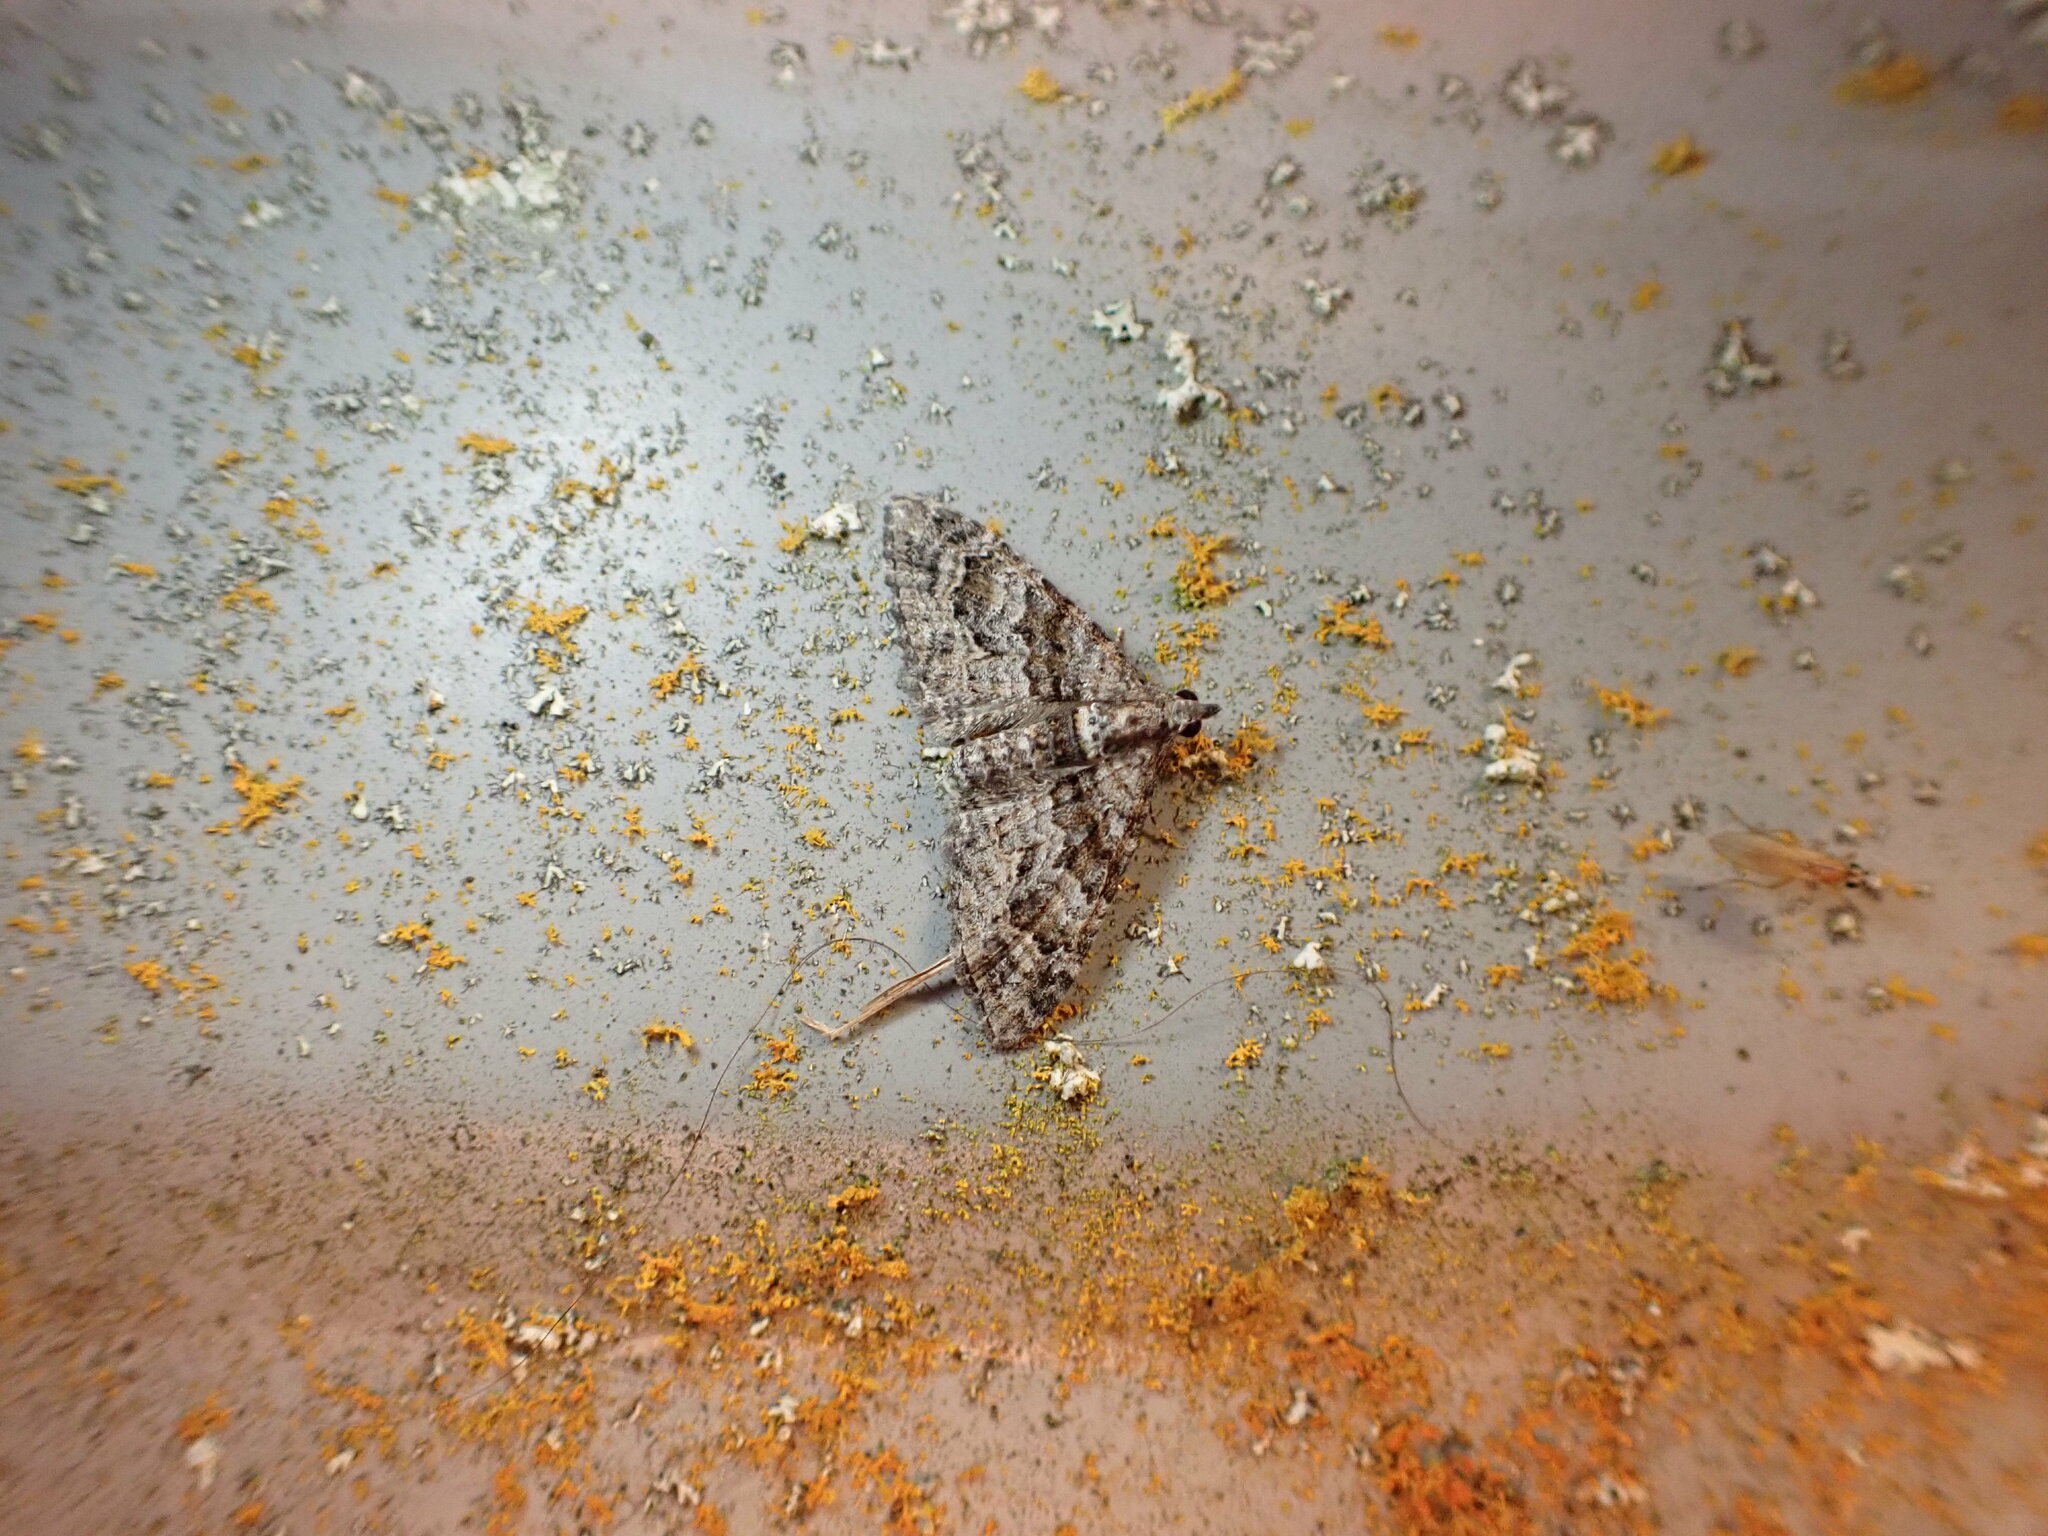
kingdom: Animalia
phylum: Arthropoda
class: Insecta
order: Lepidoptera
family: Geometridae
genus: Phrissogonus
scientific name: Phrissogonus laticostata
